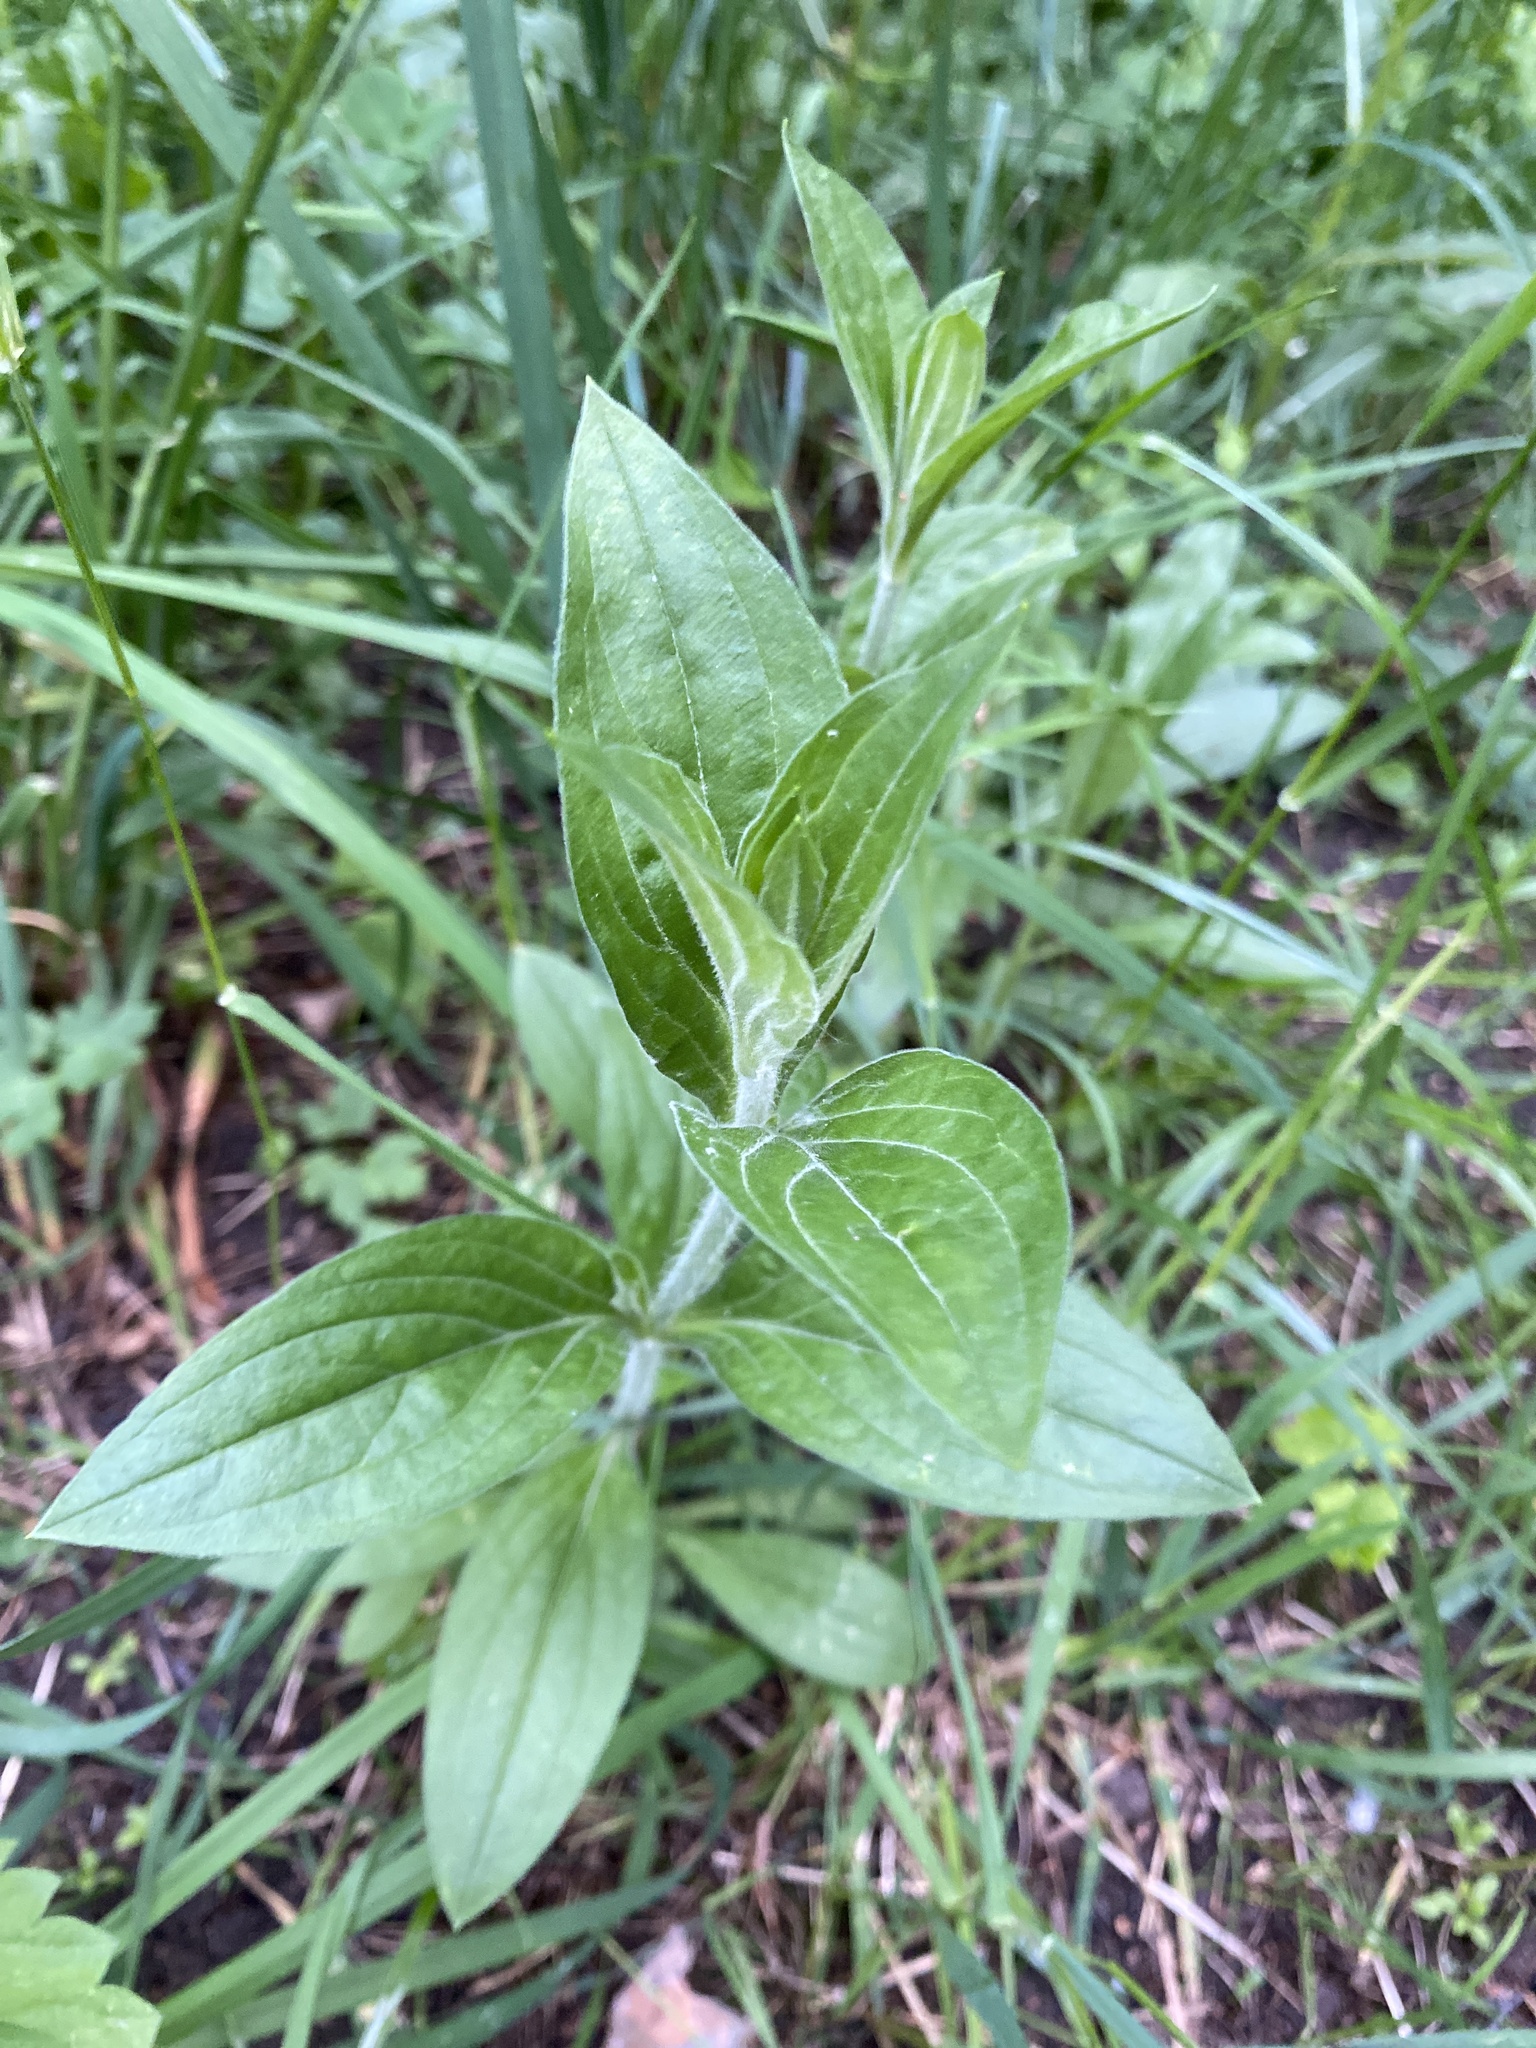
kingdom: Plantae
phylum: Tracheophyta
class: Magnoliopsida
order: Caryophyllales
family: Caryophyllaceae
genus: Silene
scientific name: Silene latifolia
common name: White campion
